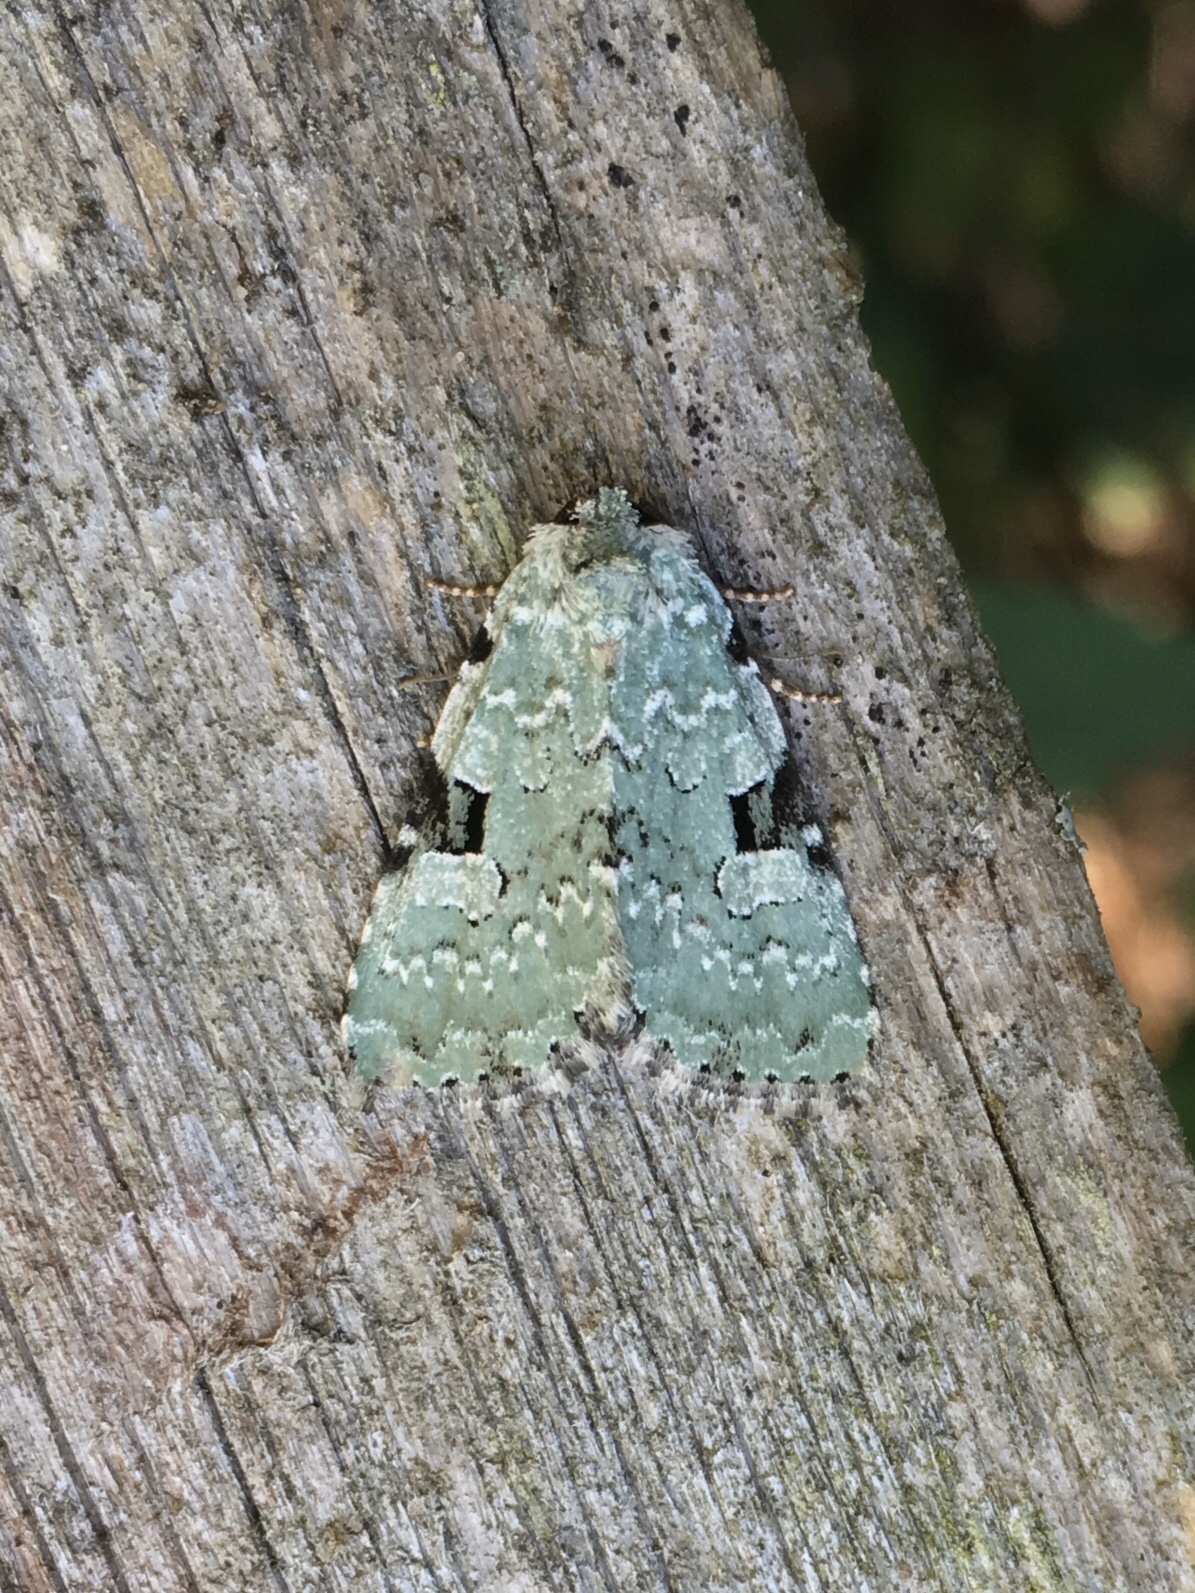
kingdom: Animalia
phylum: Arthropoda
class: Insecta
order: Lepidoptera
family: Noctuidae
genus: Leuconycta
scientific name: Leuconycta diphteroides
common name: Green leuconycta moth
